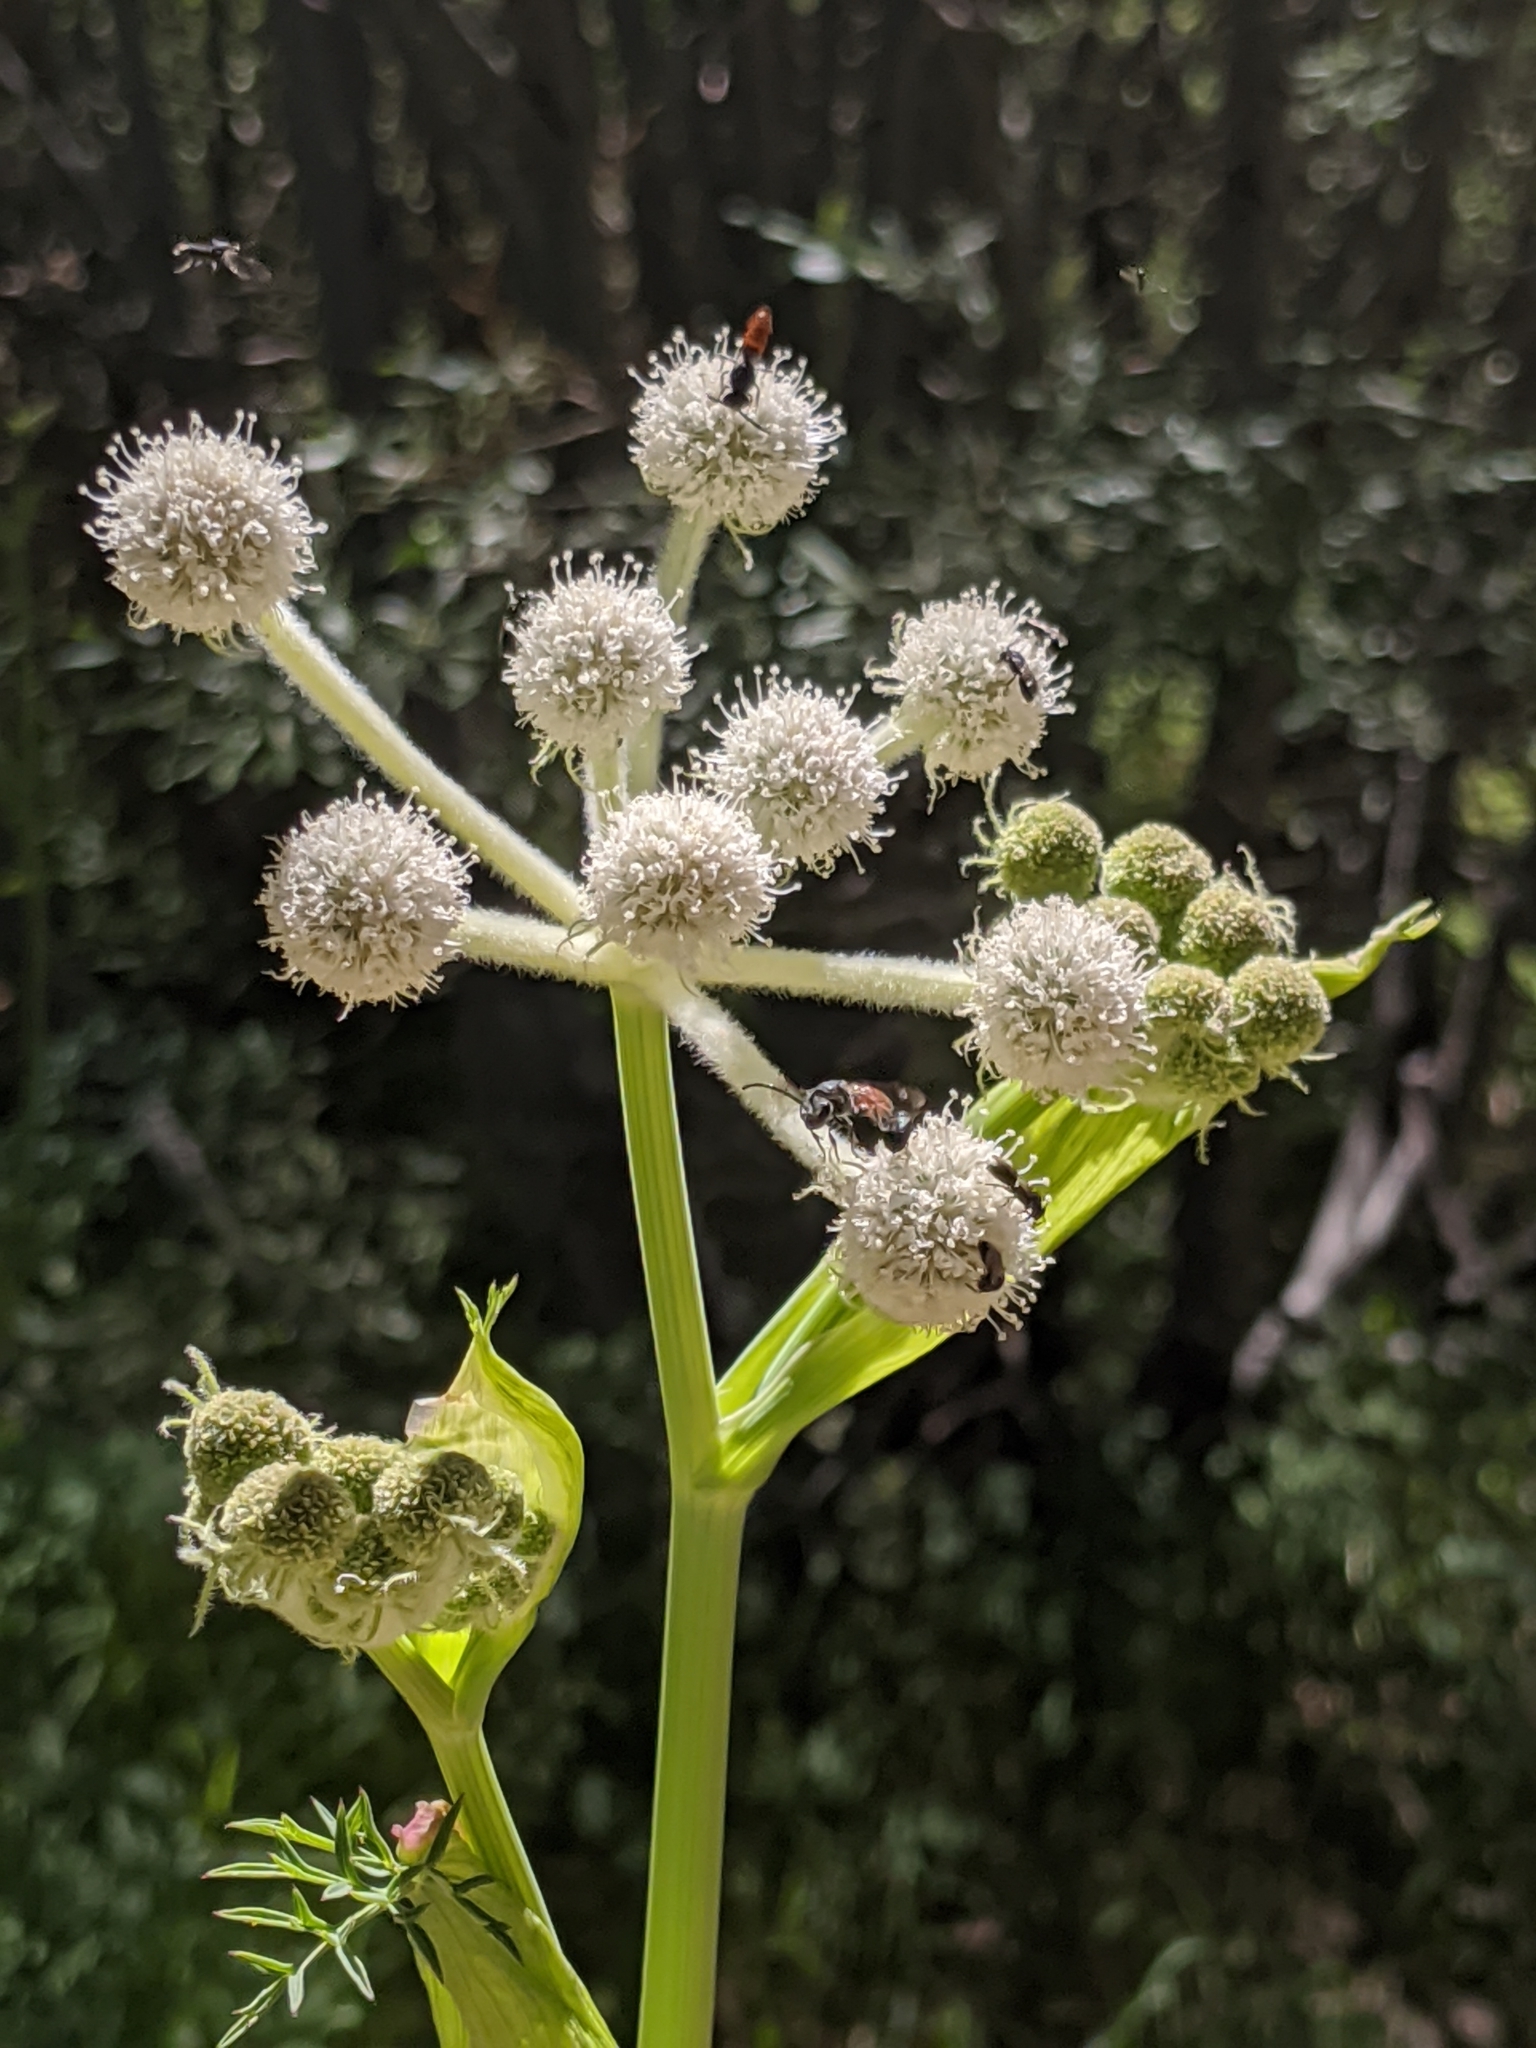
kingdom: Plantae
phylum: Tracheophyta
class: Magnoliopsida
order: Apiales
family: Apiaceae
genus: Angelica
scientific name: Angelica capitellata
